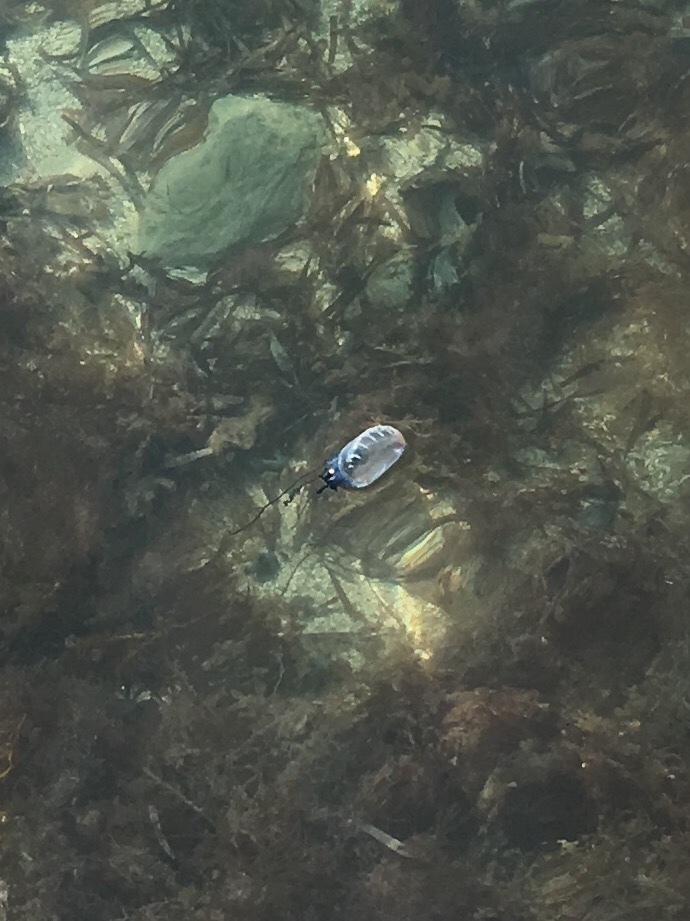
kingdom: Animalia
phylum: Cnidaria
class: Hydrozoa
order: Siphonophorae
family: Physaliidae
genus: Physalia
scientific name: Physalia physalis
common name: Portuguese man-of-war
